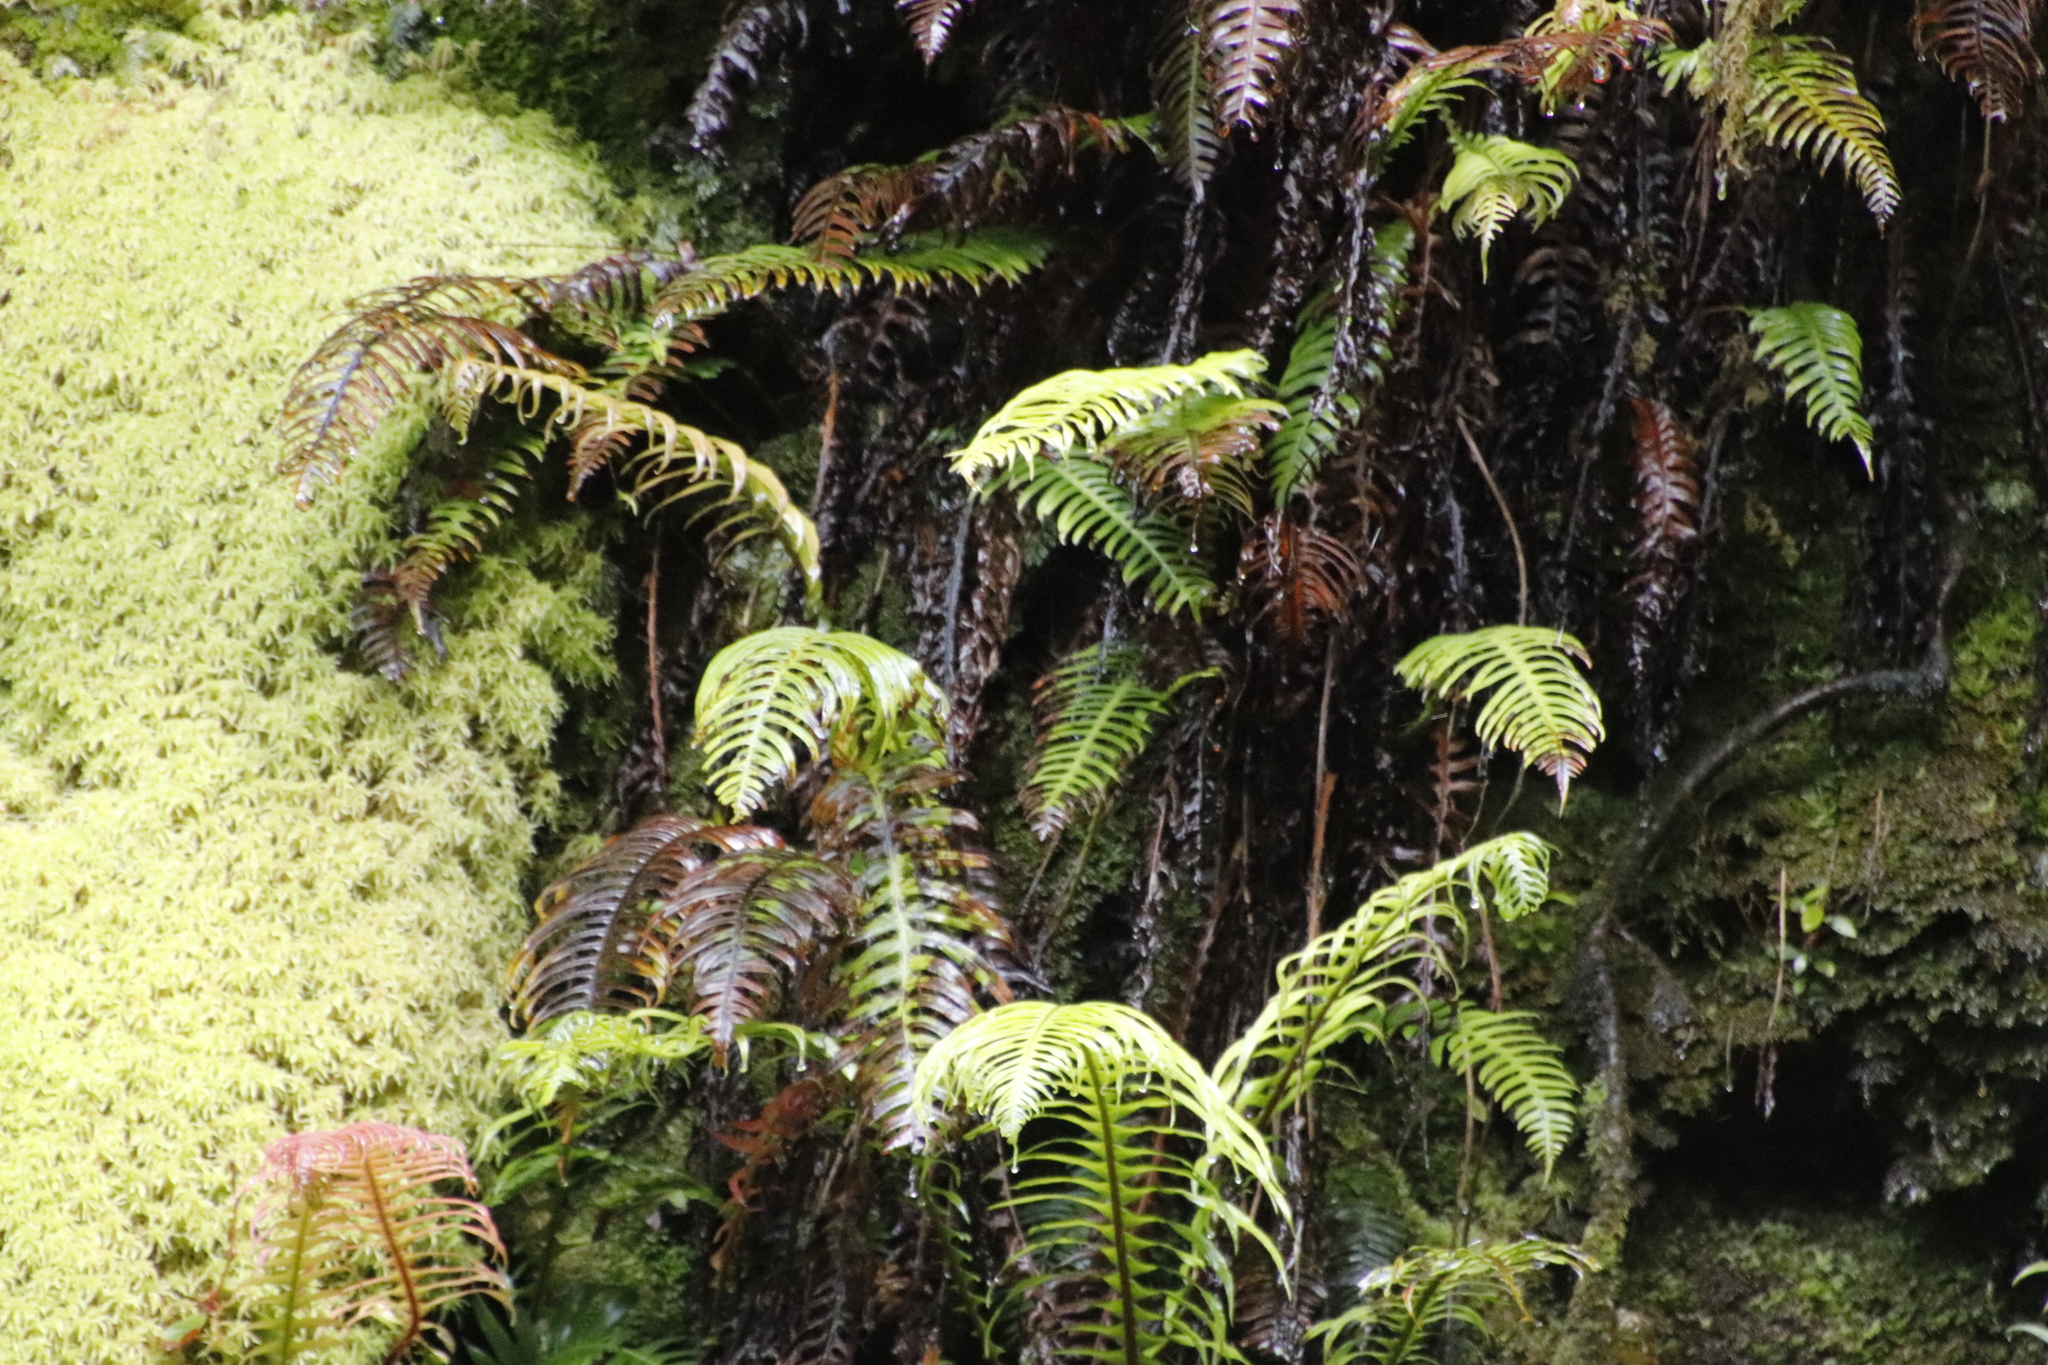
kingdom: Plantae
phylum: Tracheophyta
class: Polypodiopsida
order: Polypodiales
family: Blechnaceae
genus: Lomaridium
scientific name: Lomaridium attenuatum
